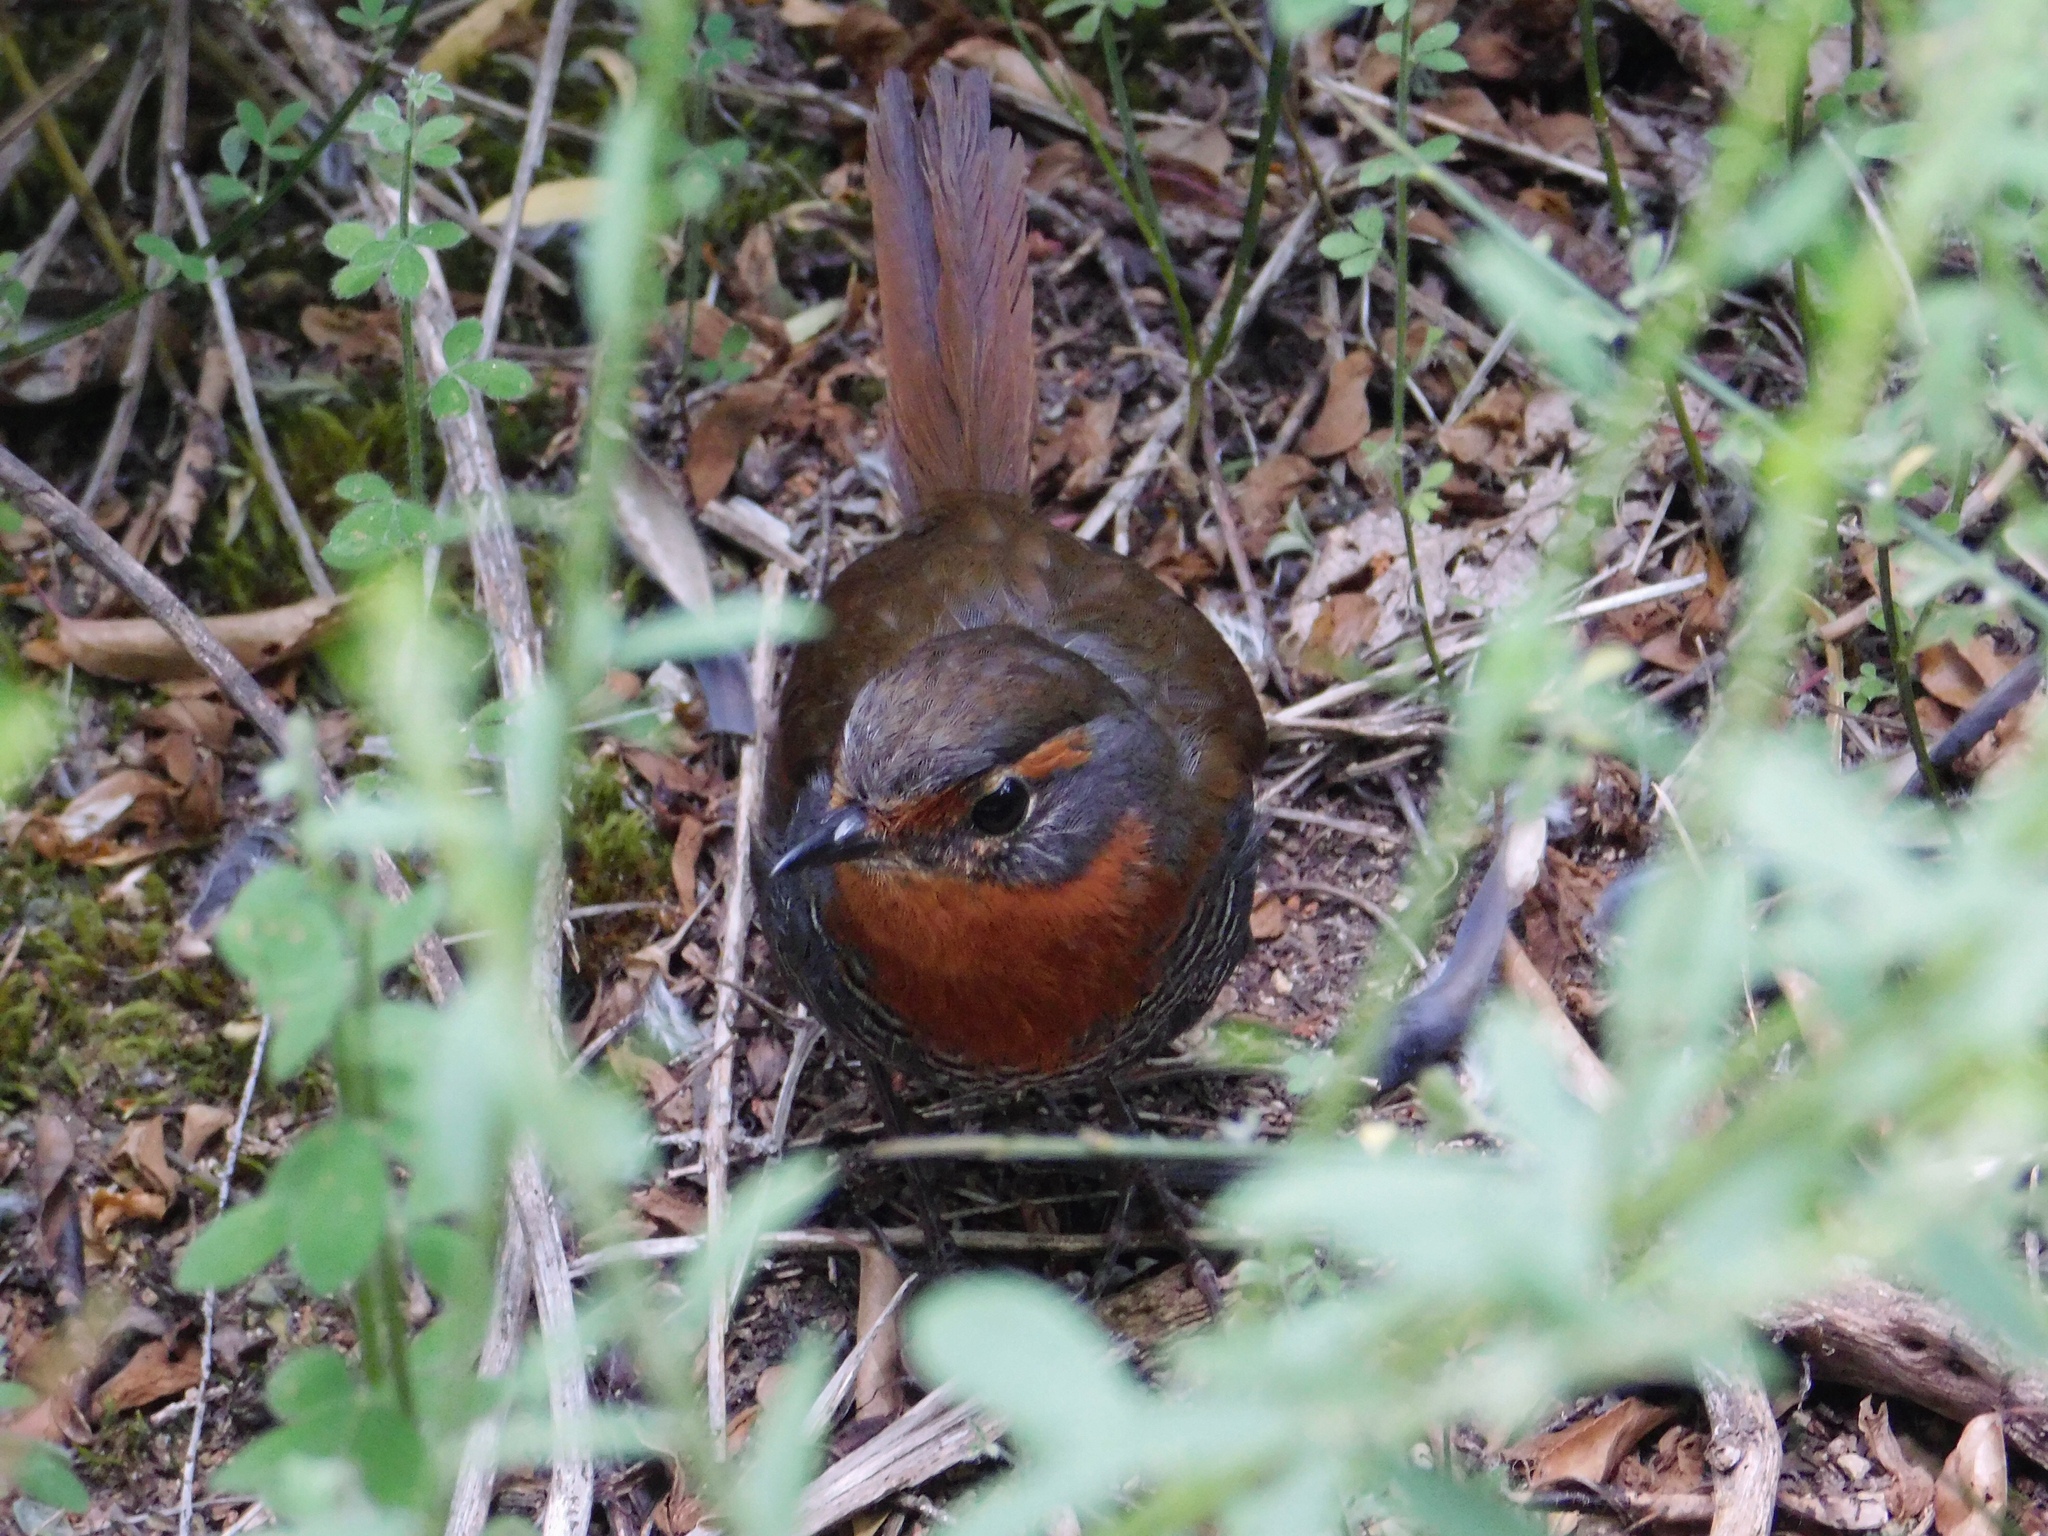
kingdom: Animalia
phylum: Chordata
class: Aves
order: Passeriformes
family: Rhinocryptidae
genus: Scelorchilus
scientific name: Scelorchilus rubecula
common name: Chucao tapaculo
